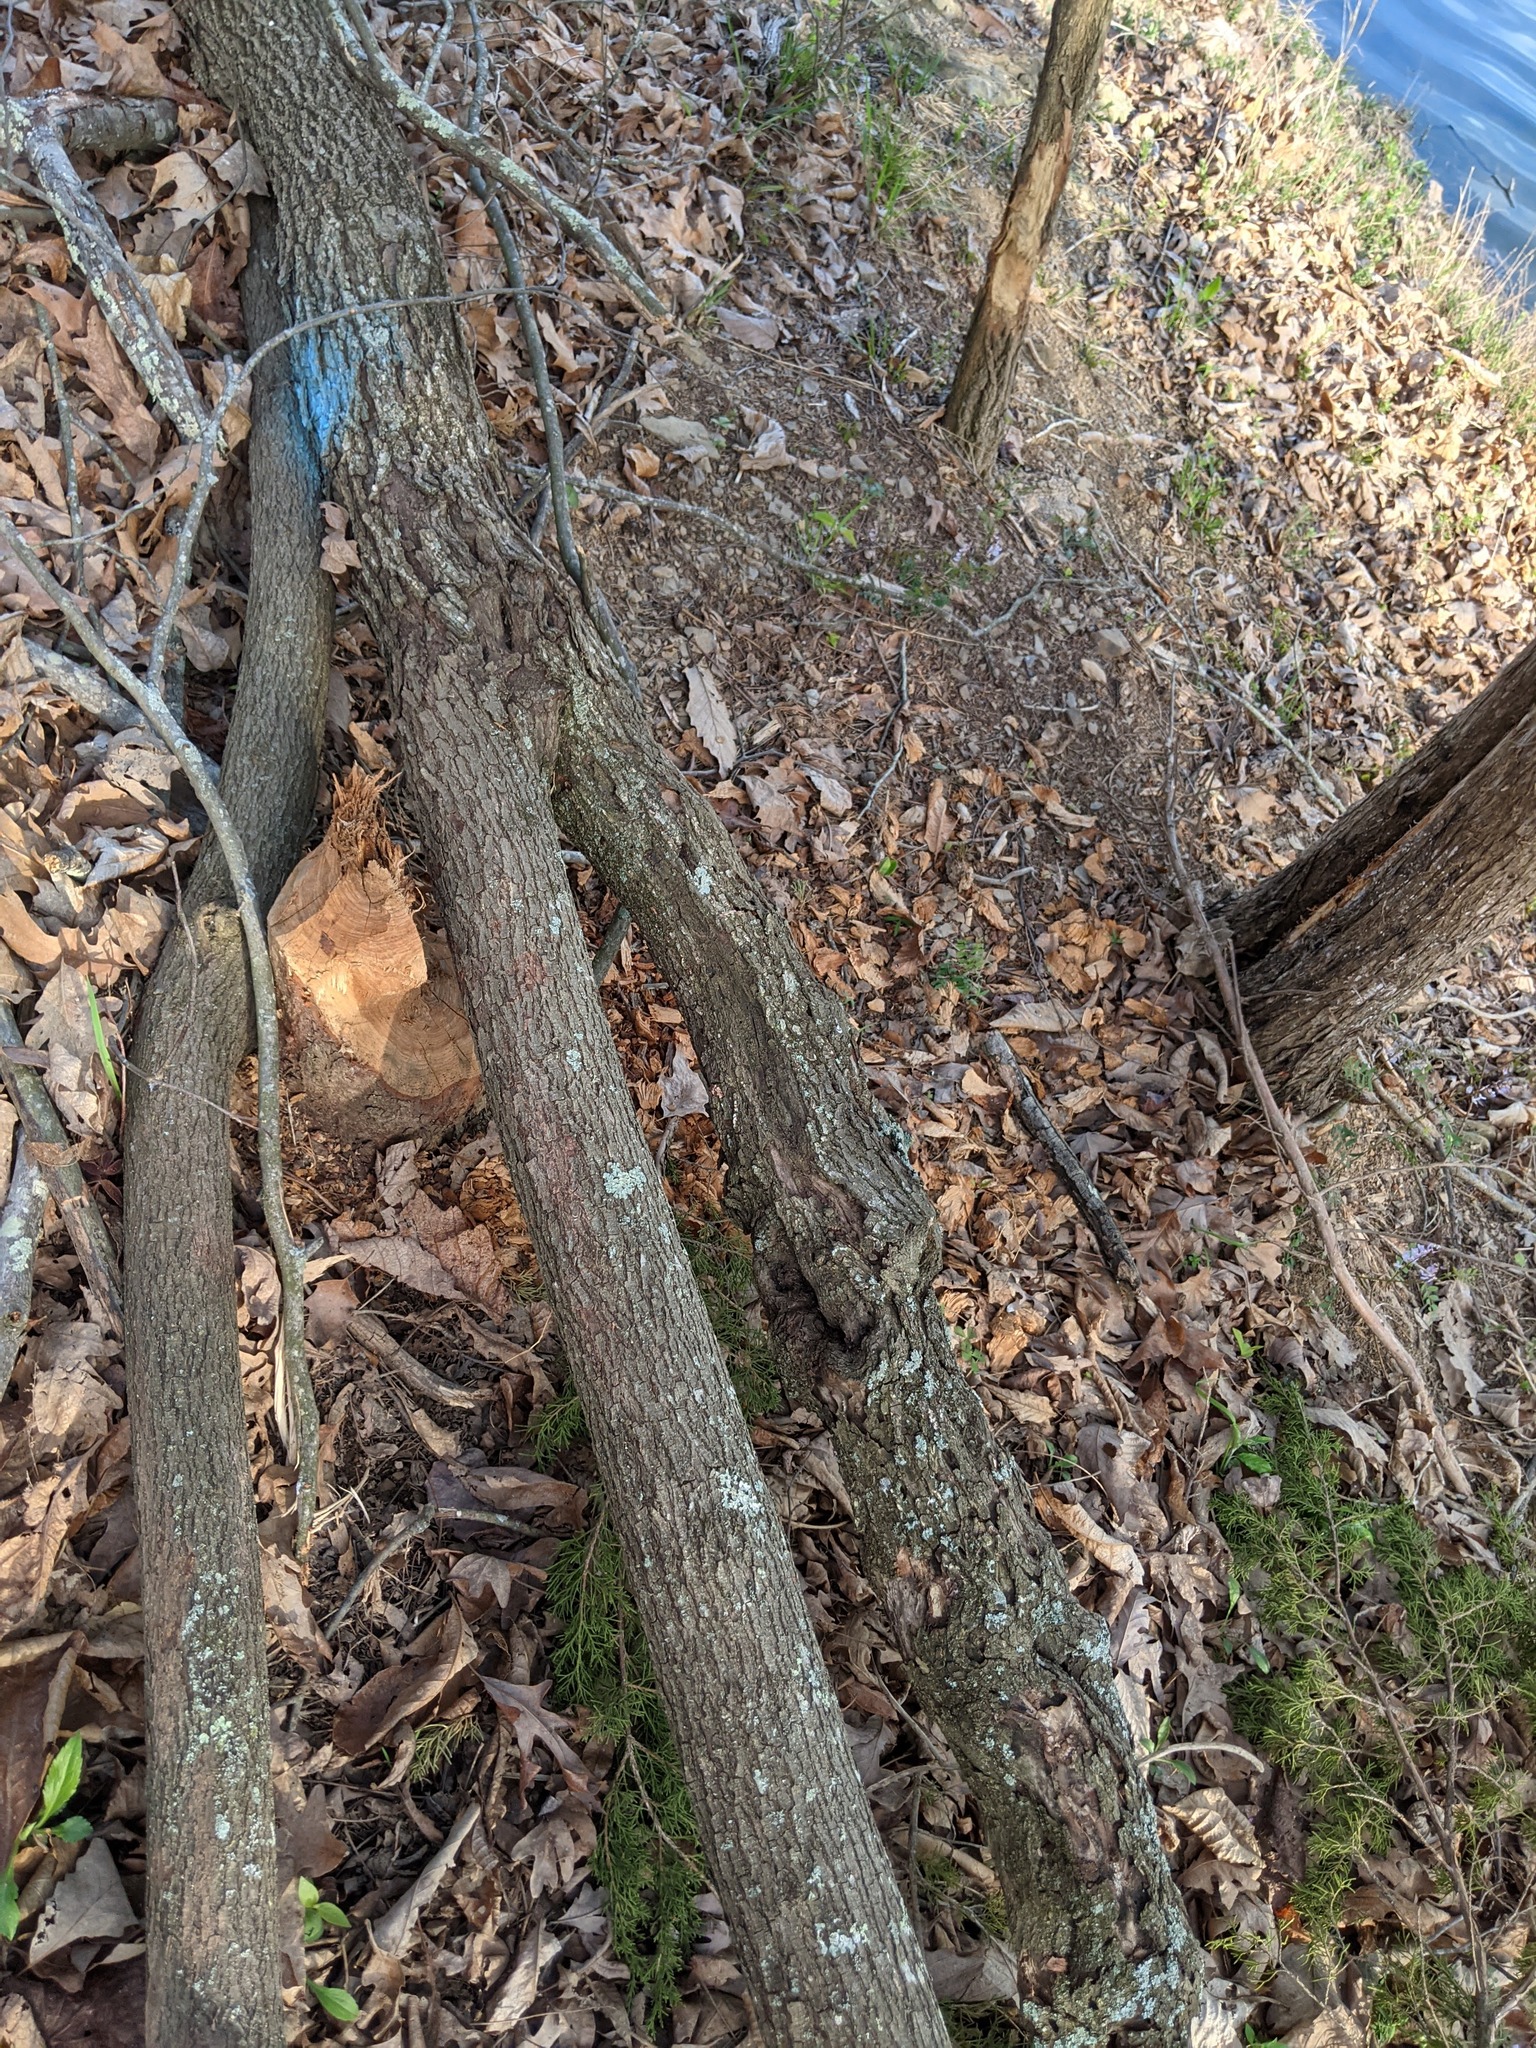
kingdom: Animalia
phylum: Chordata
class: Mammalia
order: Rodentia
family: Castoridae
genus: Castor
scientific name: Castor canadensis
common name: American beaver
